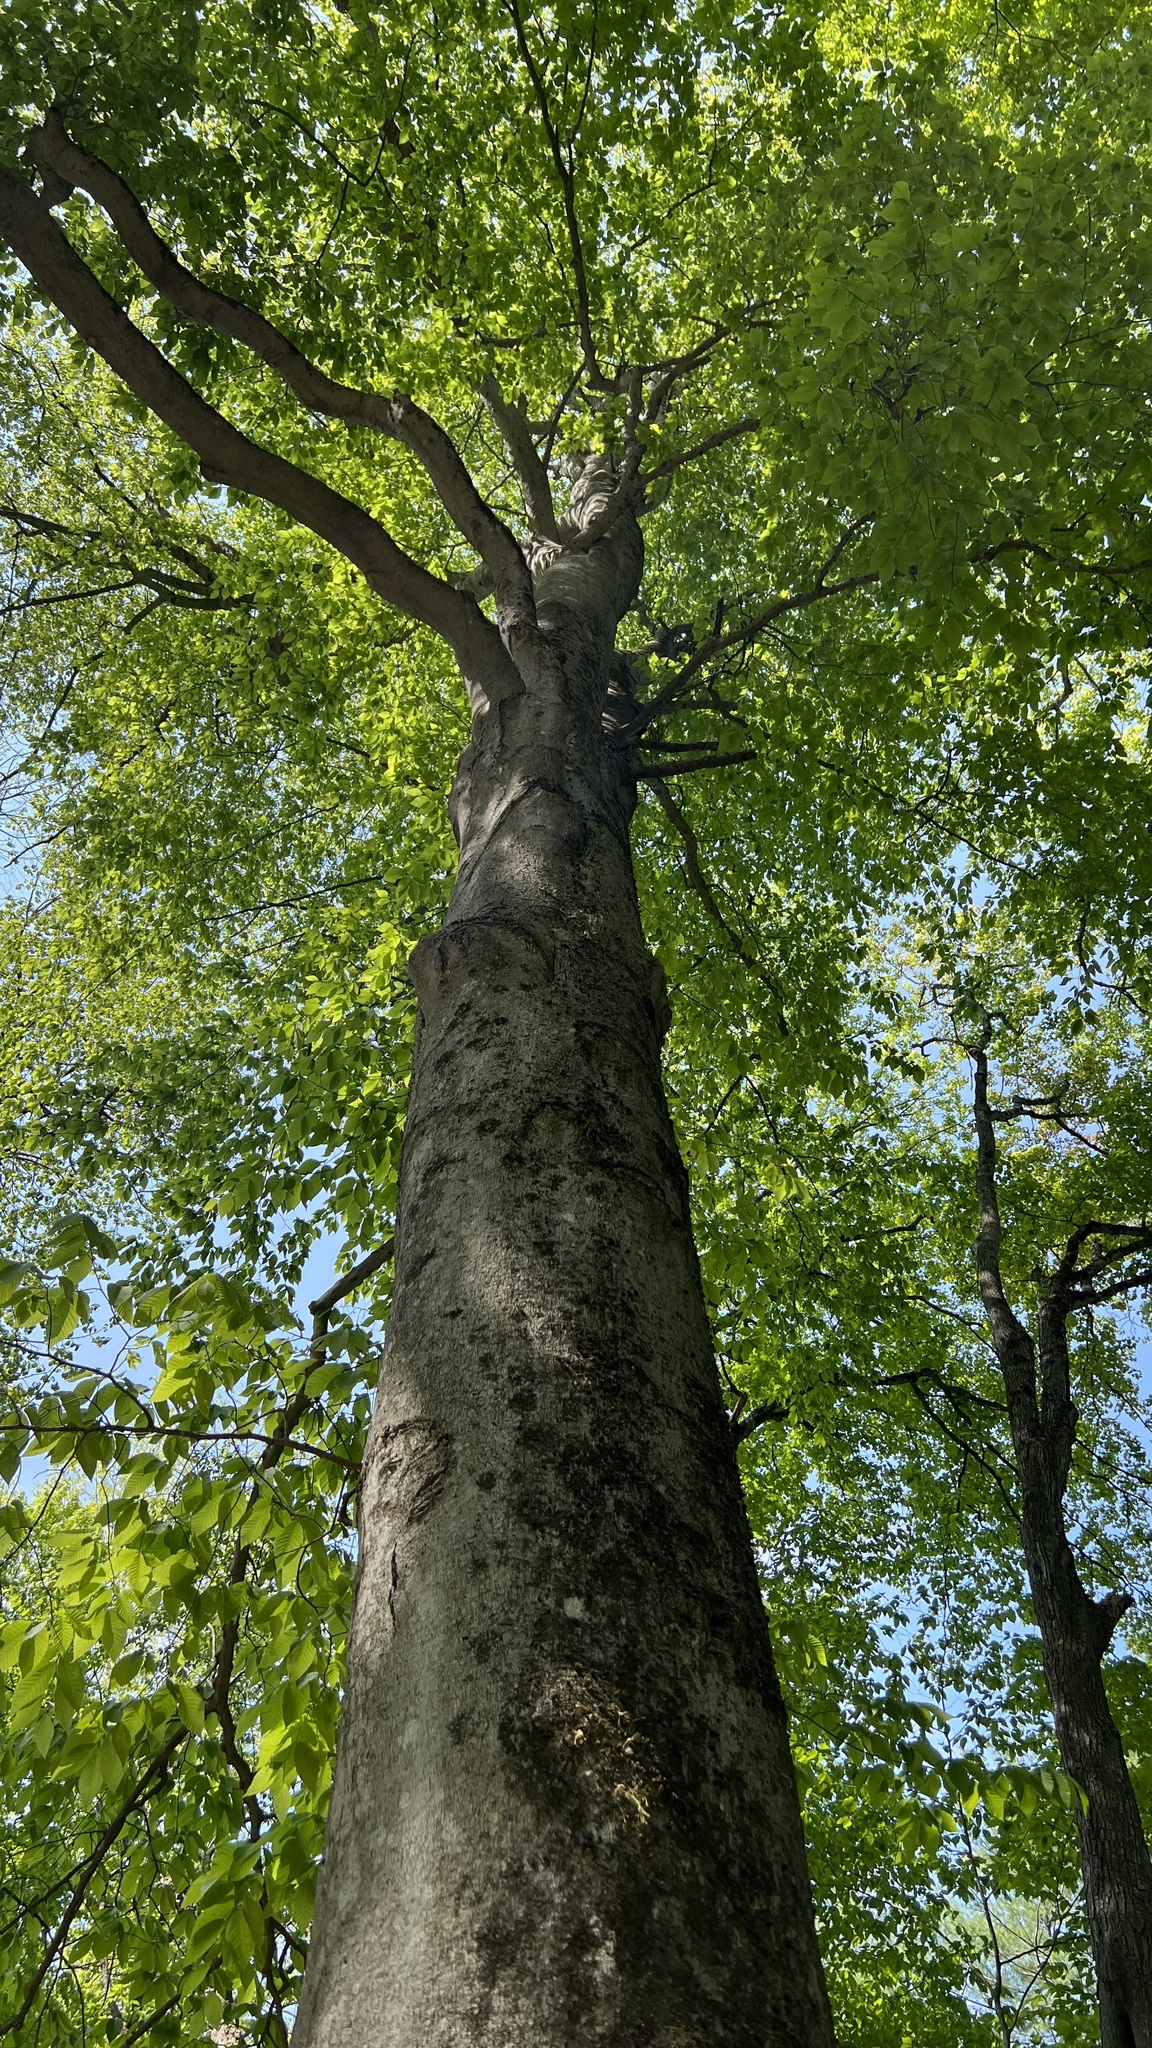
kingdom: Plantae
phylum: Tracheophyta
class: Magnoliopsida
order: Fagales
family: Fagaceae
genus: Fagus
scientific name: Fagus grandifolia
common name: American beech
